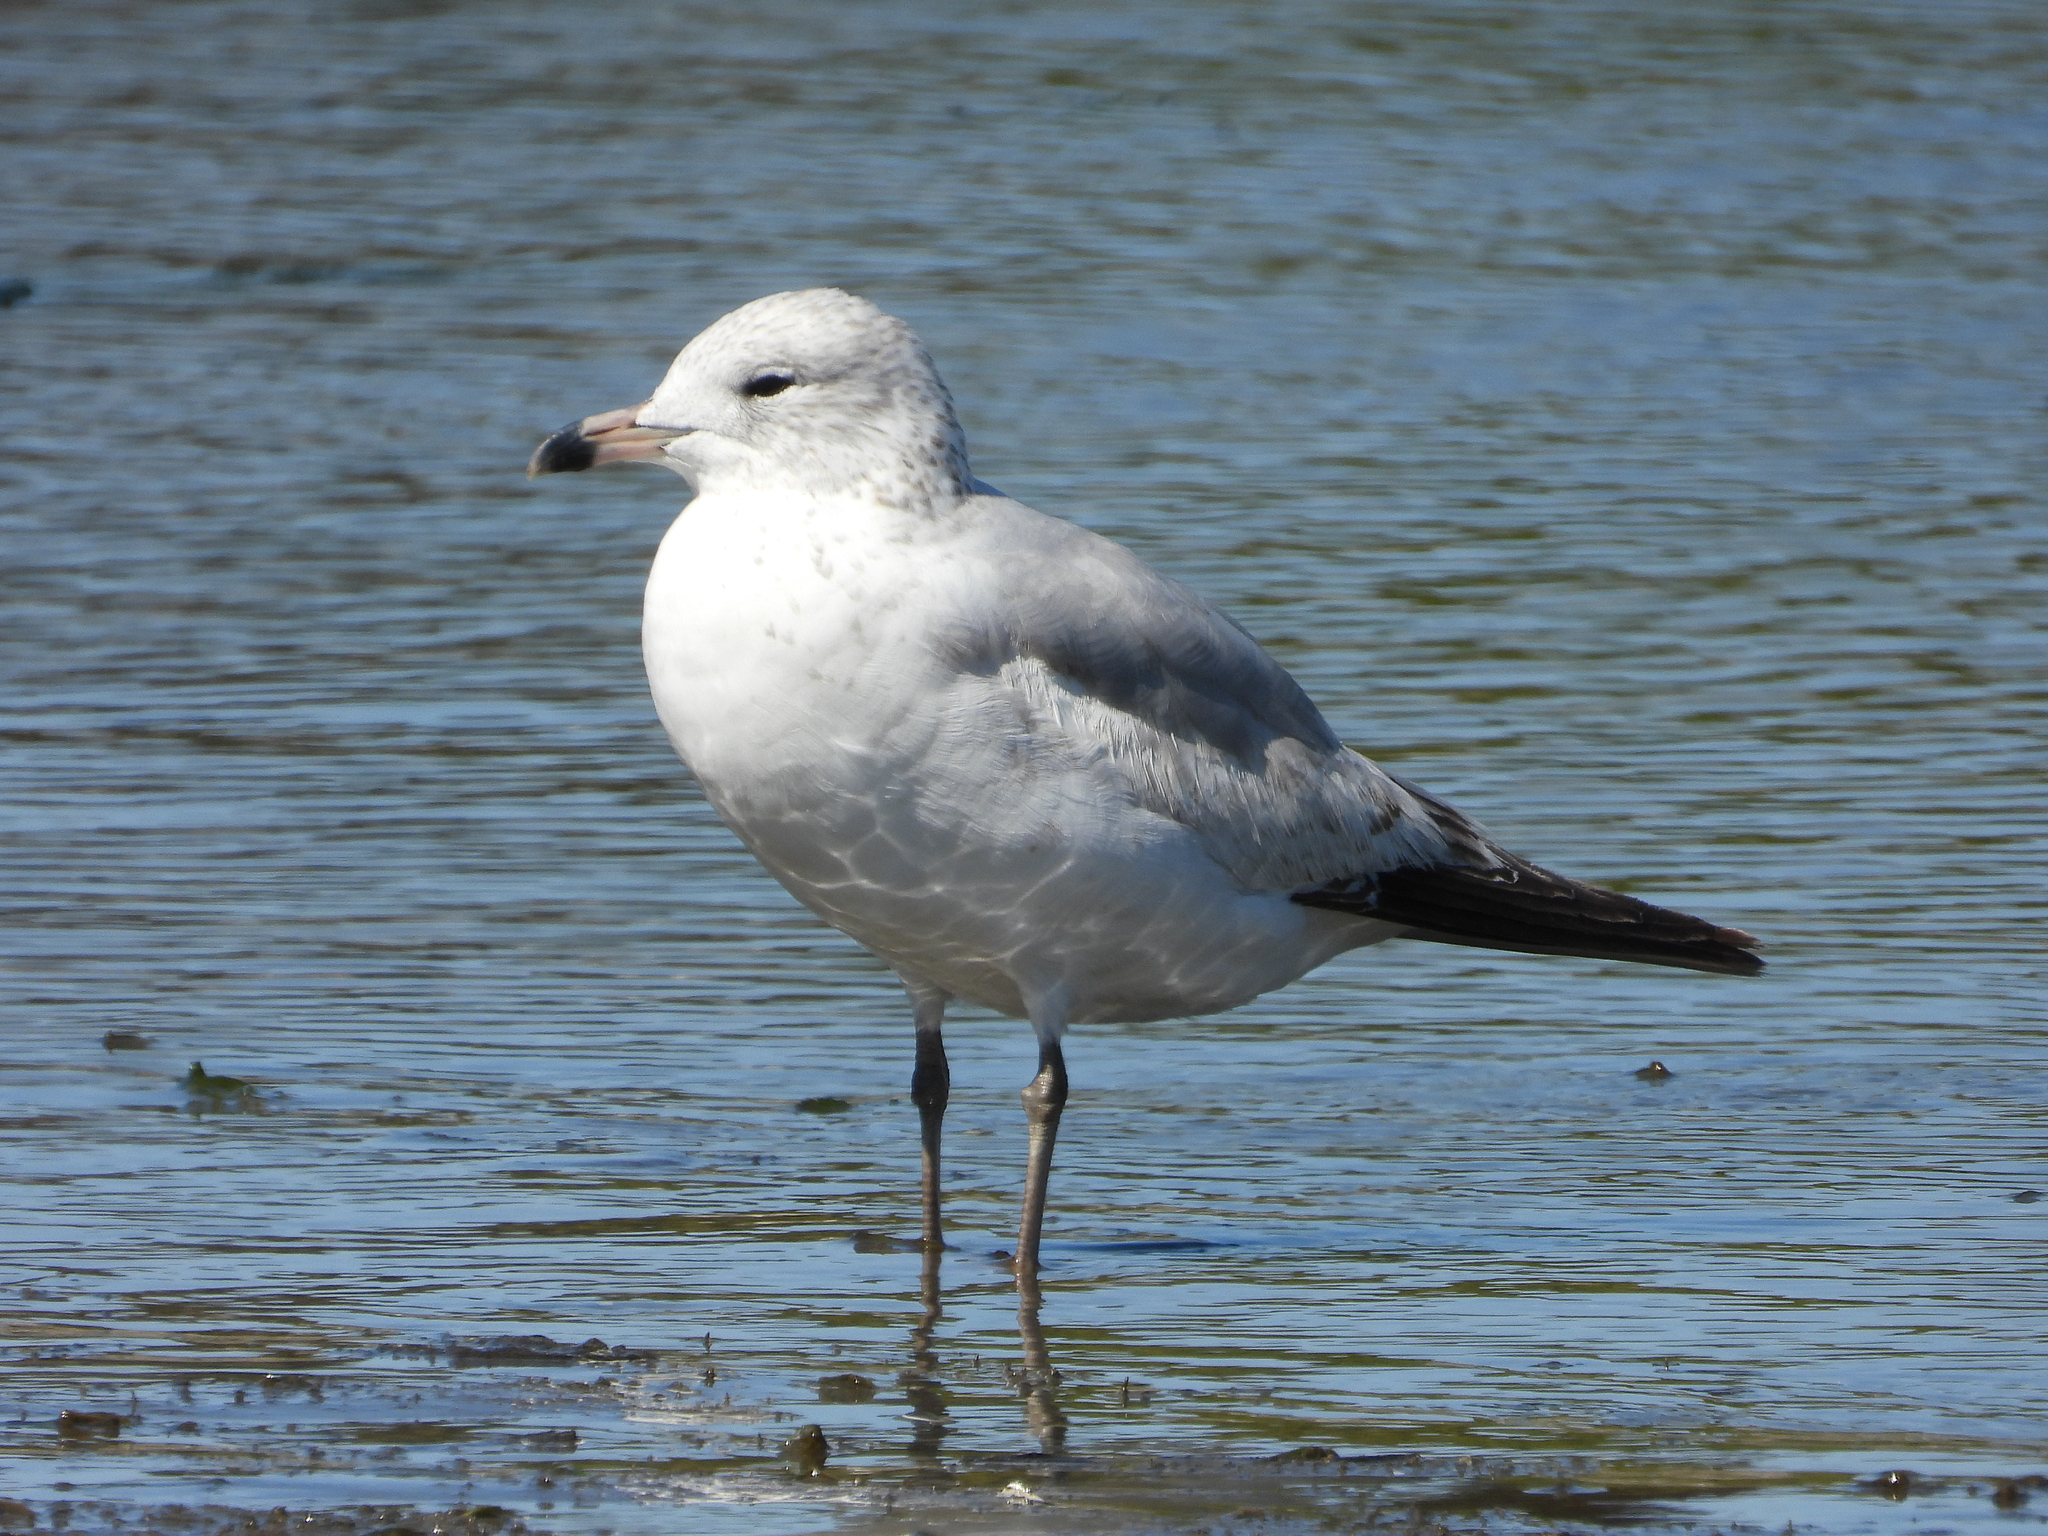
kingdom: Animalia
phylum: Chordata
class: Aves
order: Charadriiformes
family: Laridae
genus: Larus
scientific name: Larus delawarensis
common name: Ring-billed gull
